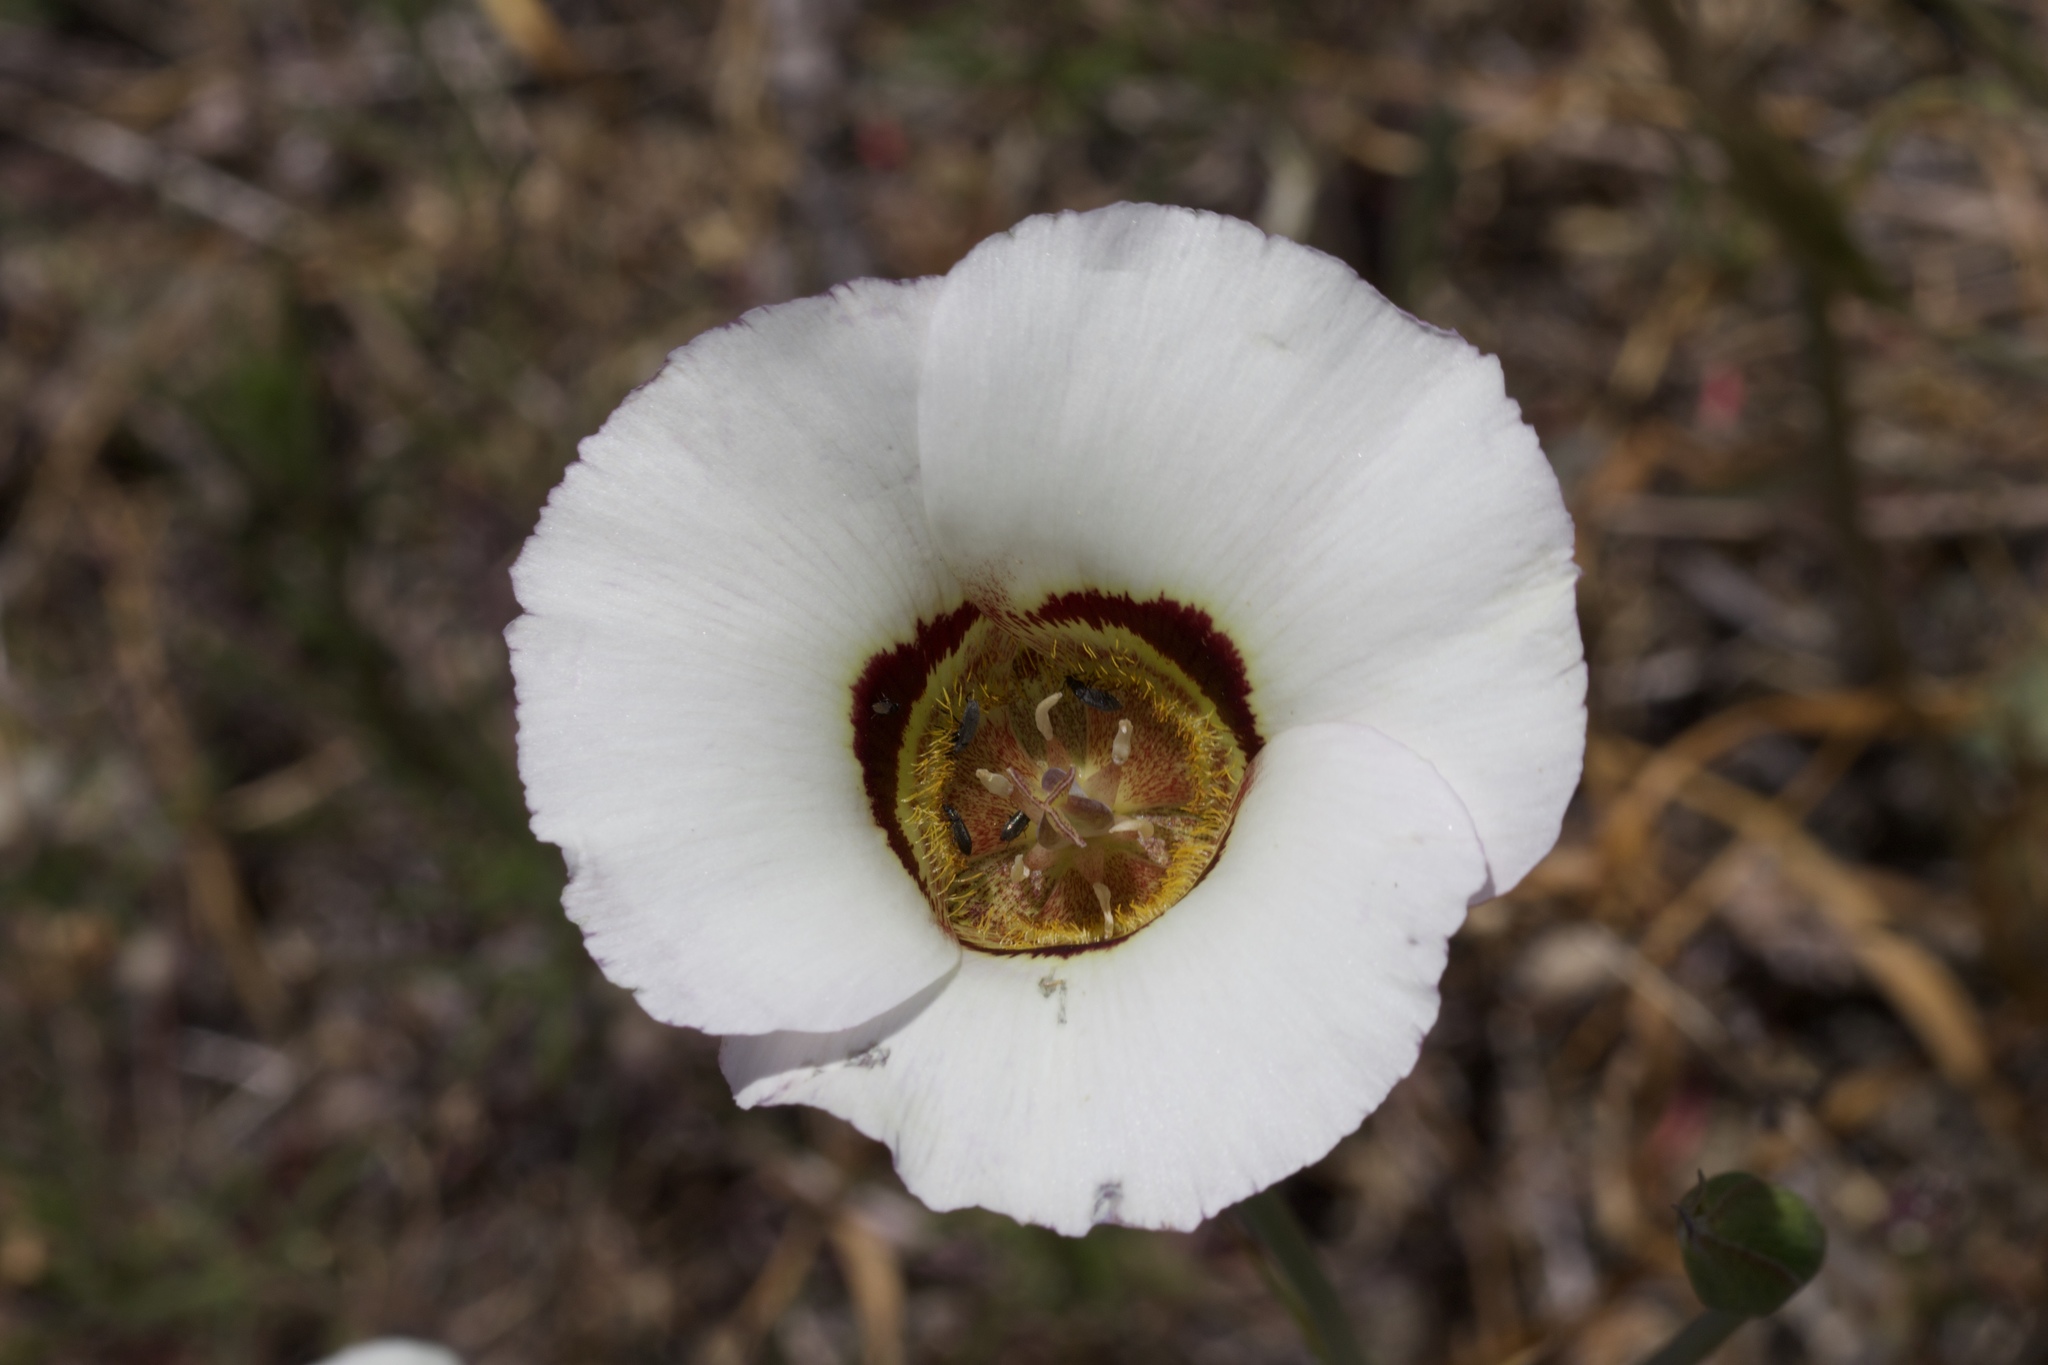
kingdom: Plantae
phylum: Tracheophyta
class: Liliopsida
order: Liliales
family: Liliaceae
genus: Calochortus
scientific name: Calochortus vestae
